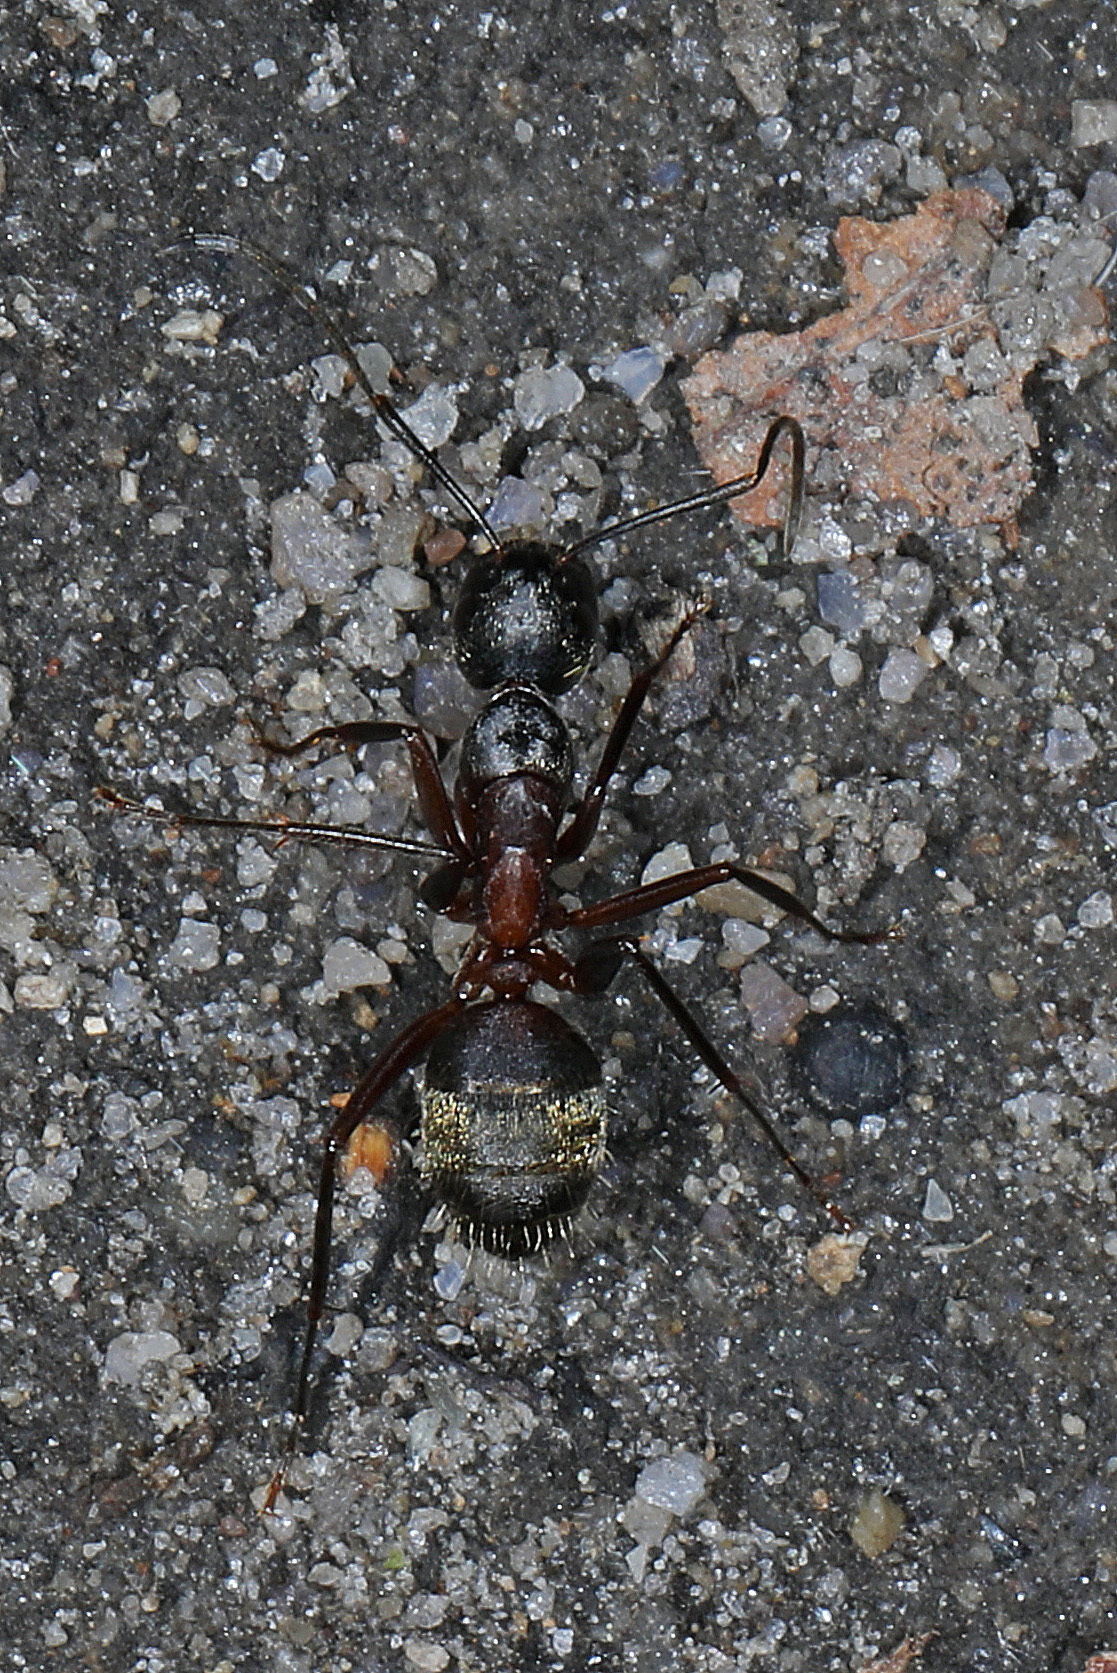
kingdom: Animalia
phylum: Arthropoda
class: Insecta
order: Hymenoptera
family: Formicidae
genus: Camponotus
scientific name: Camponotus chromaiodes
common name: Red carpenter ant
